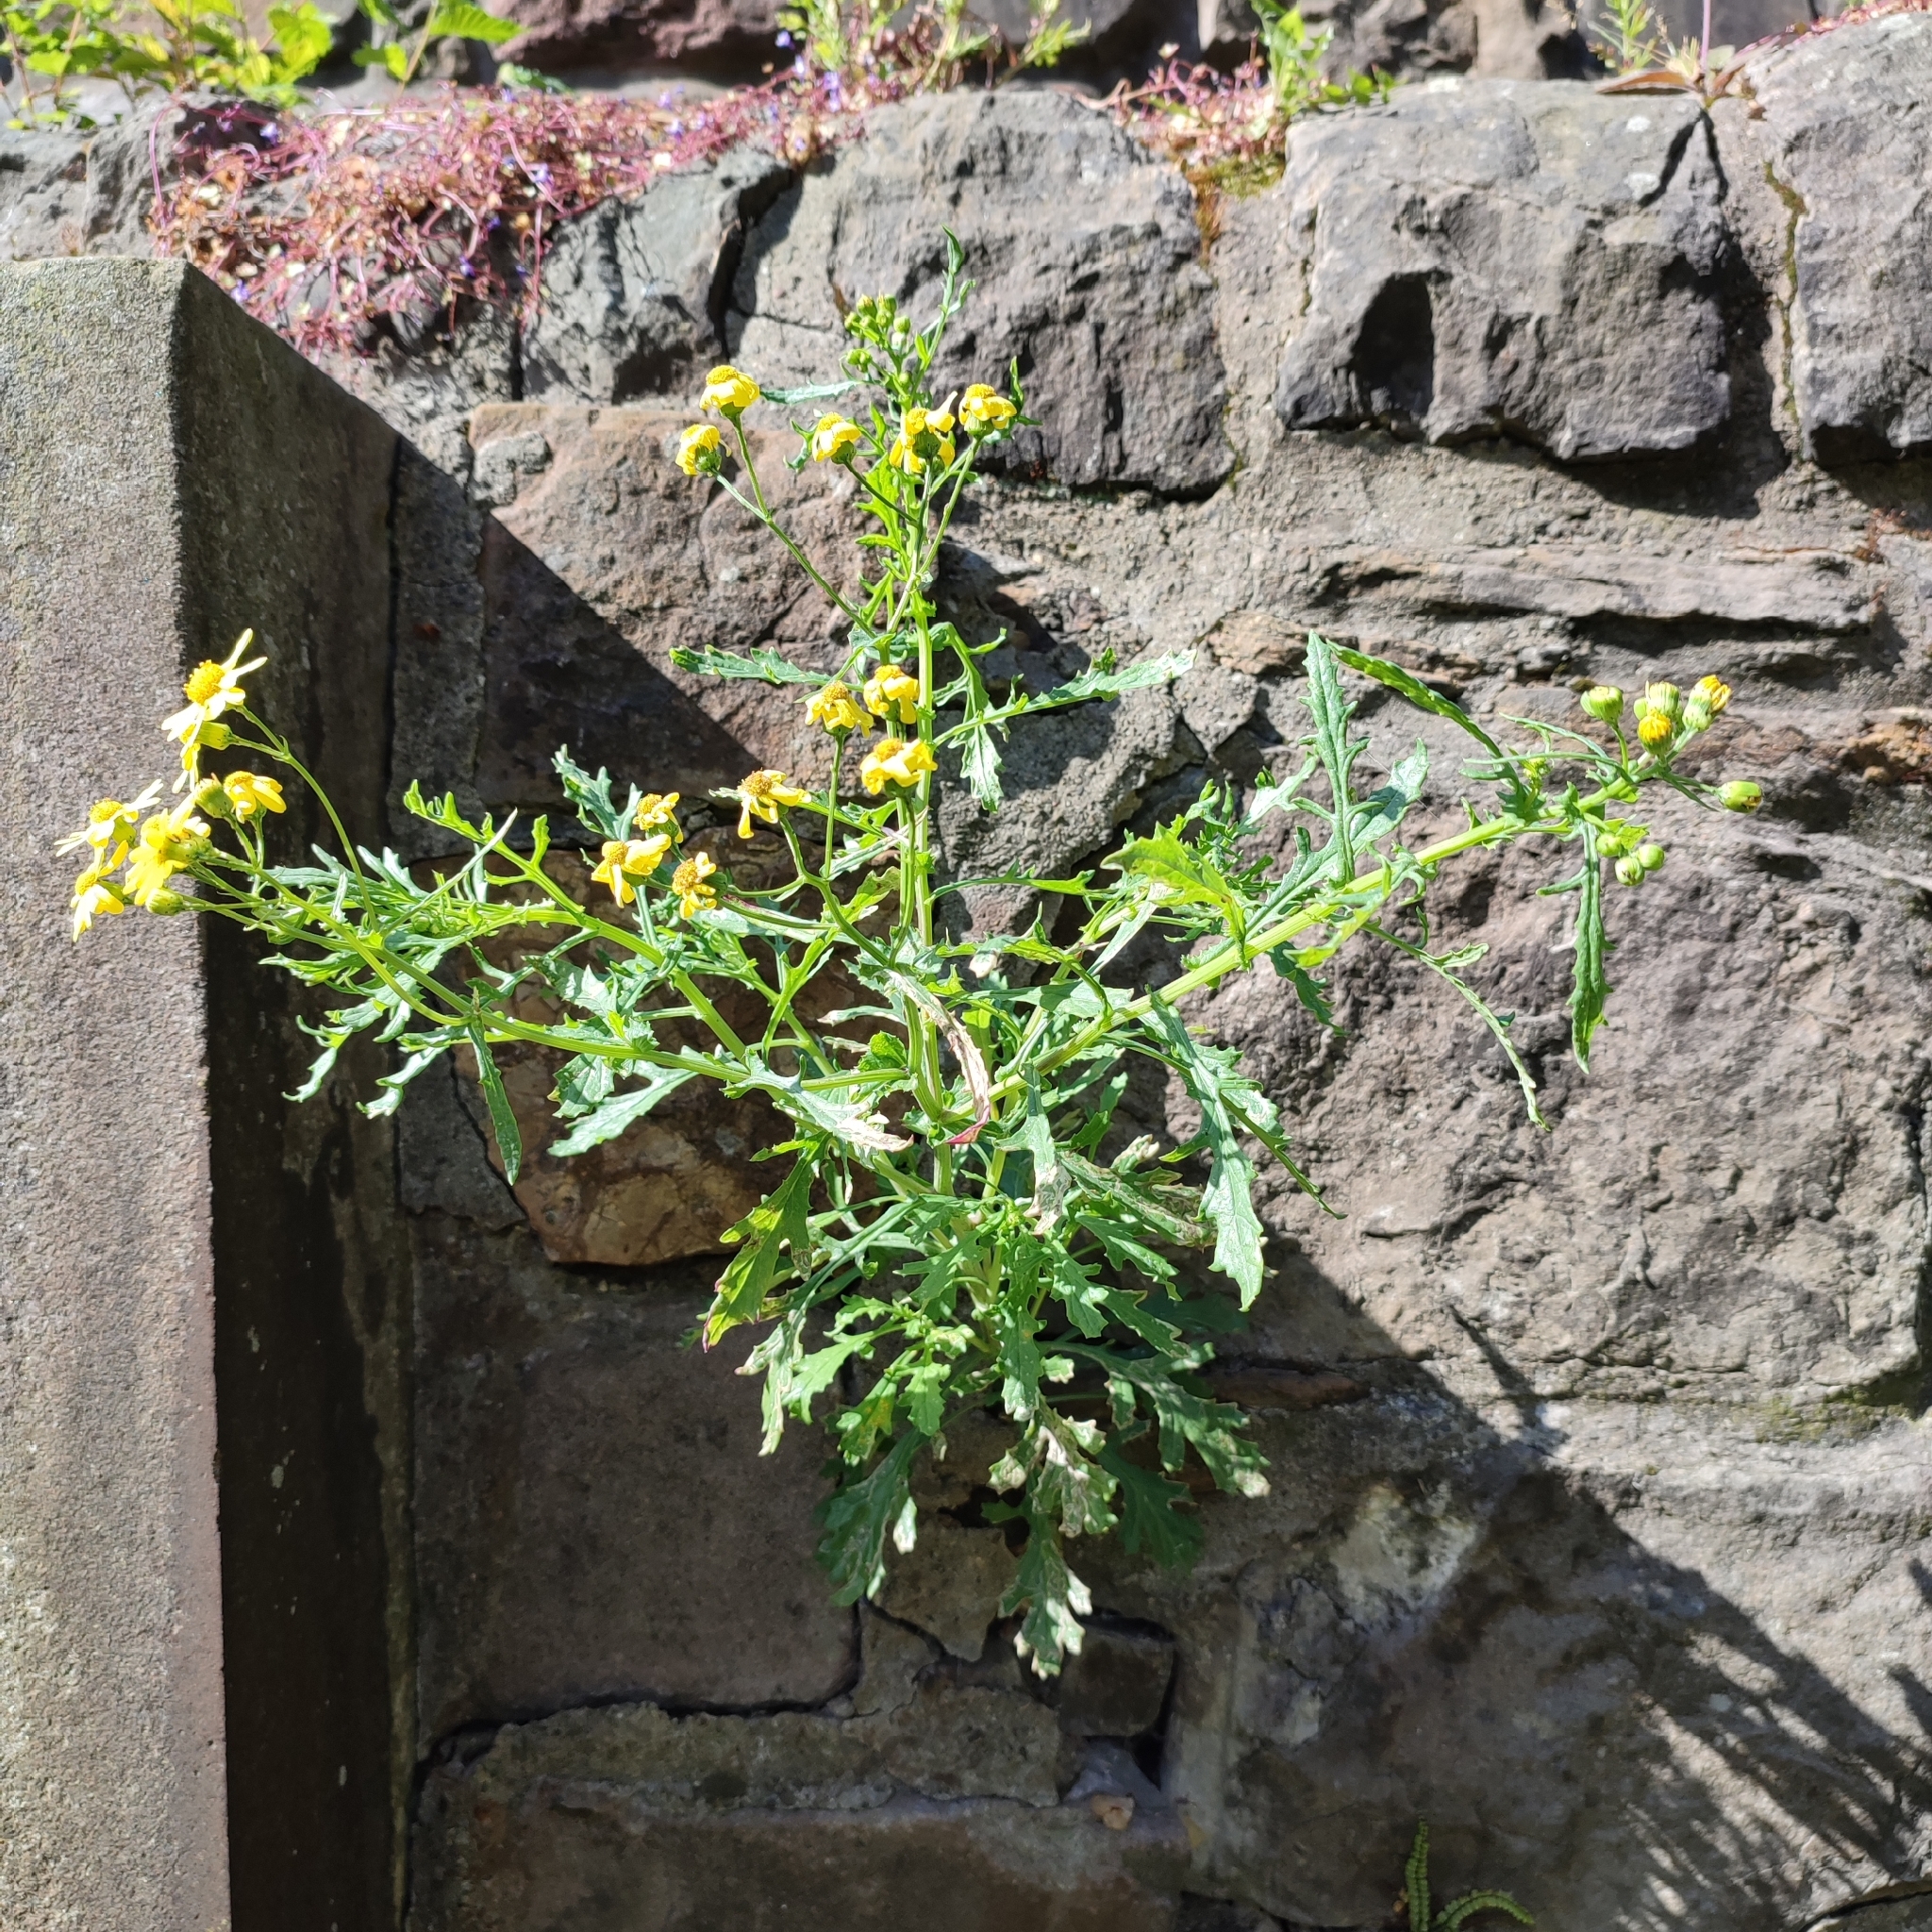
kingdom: Plantae
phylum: Tracheophyta
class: Magnoliopsida
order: Asterales
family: Asteraceae
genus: Senecio
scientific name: Senecio squalidus
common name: Oxford ragwort
